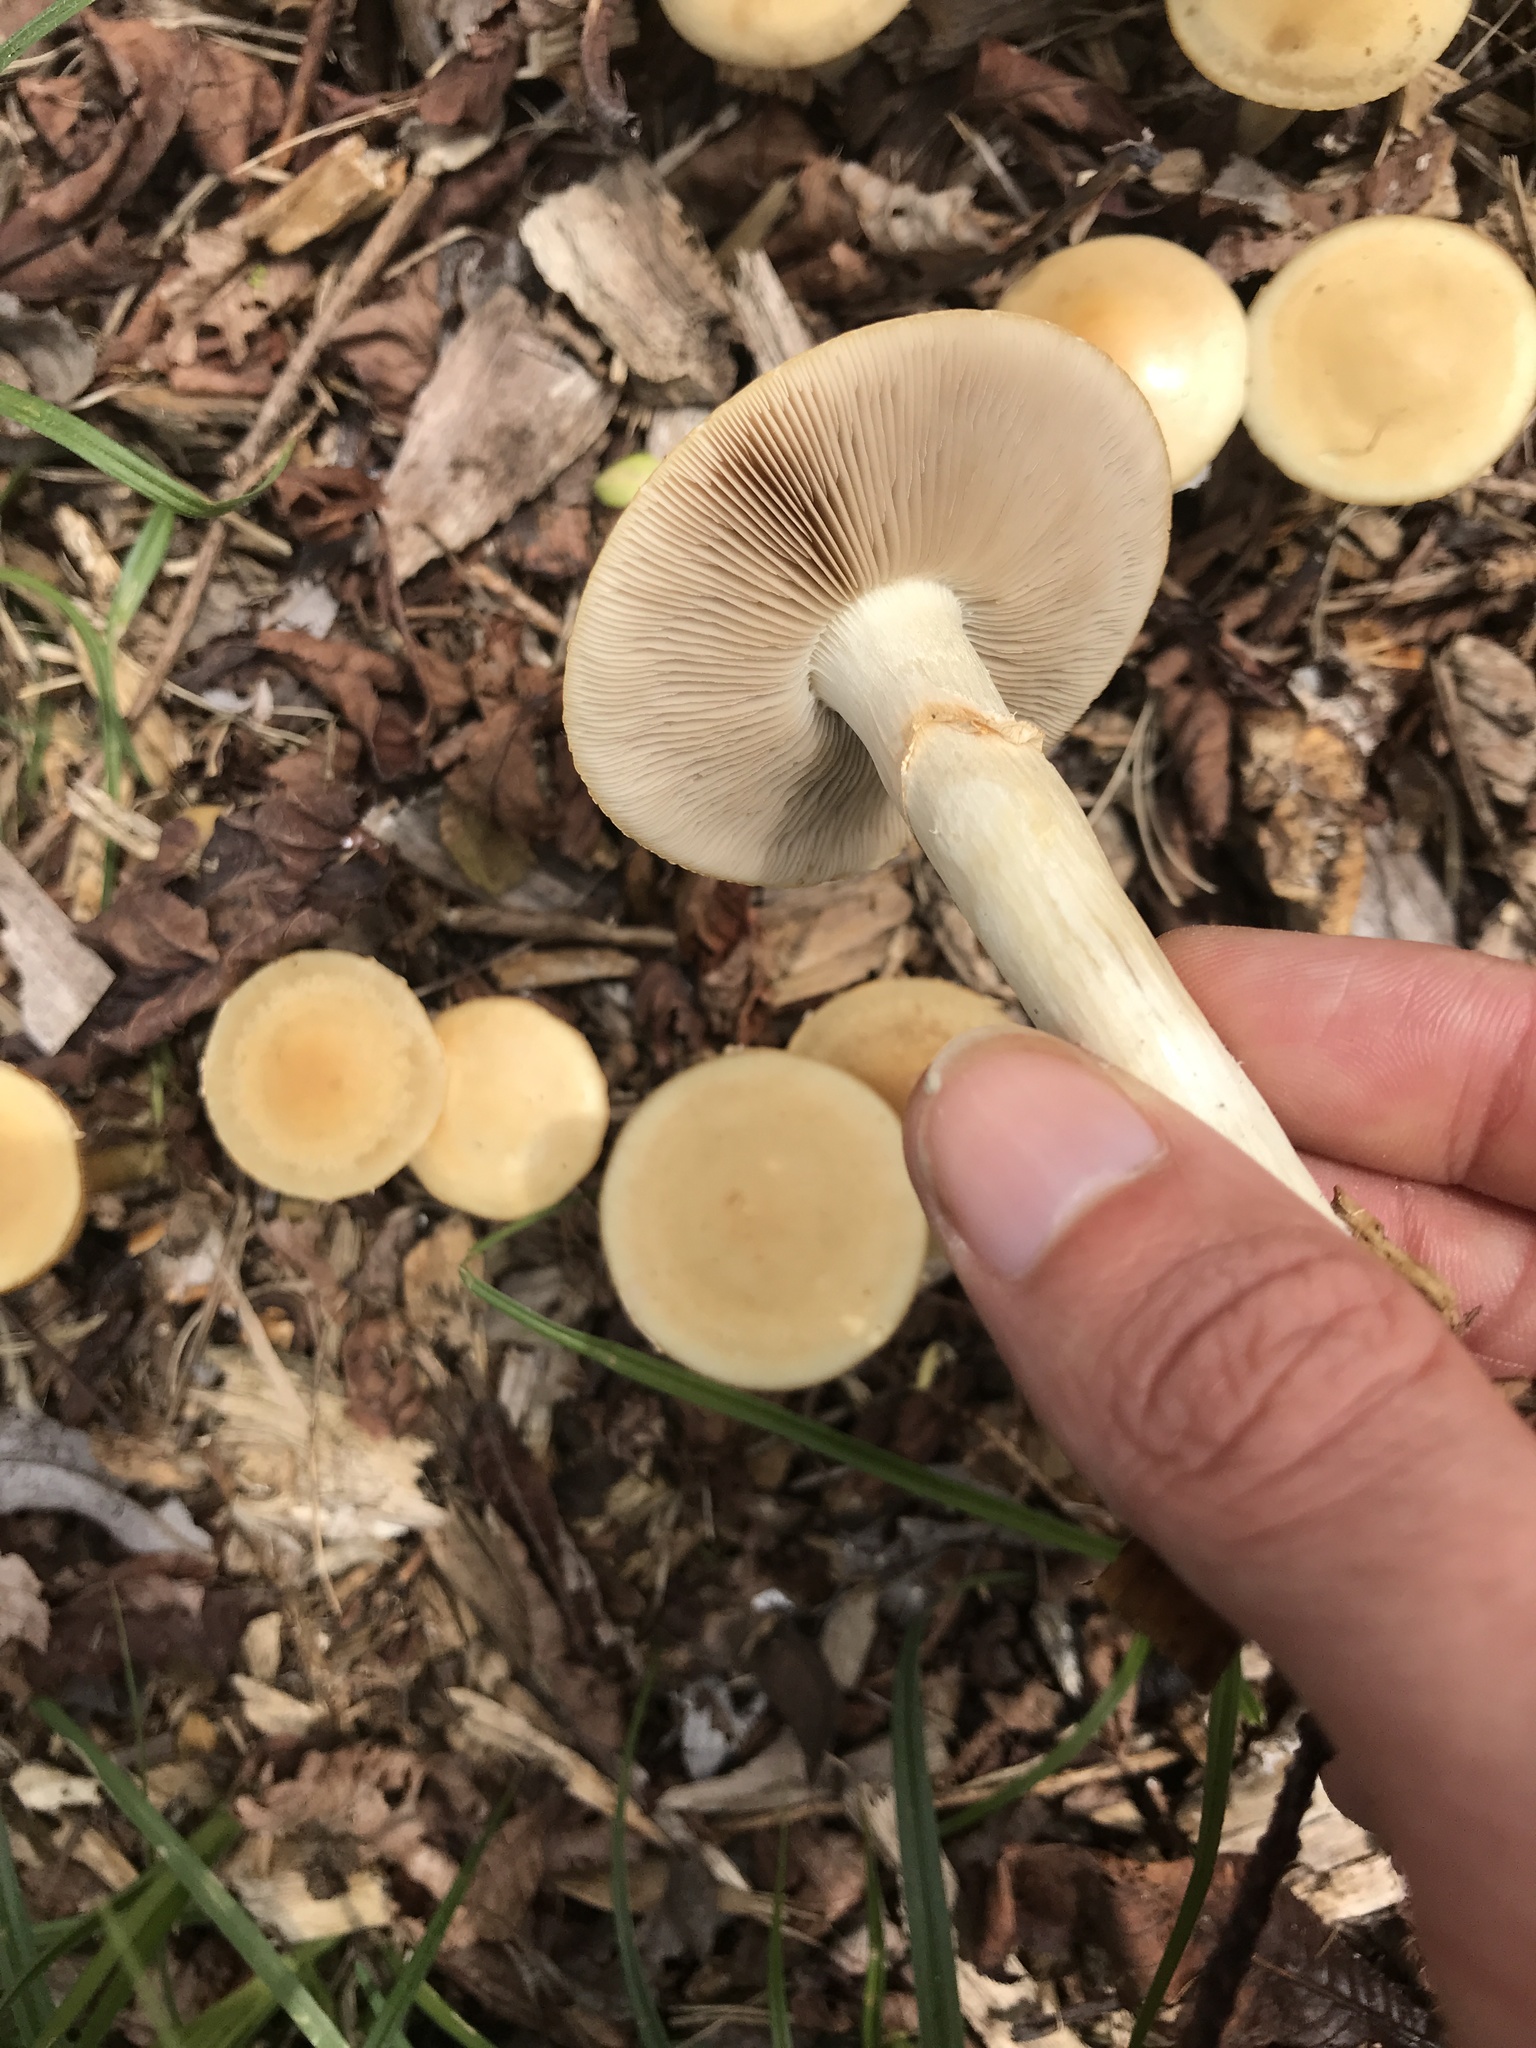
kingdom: Fungi
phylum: Basidiomycota
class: Agaricomycetes
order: Agaricales
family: Strophariaceae
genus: Agrocybe
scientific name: Agrocybe praecox
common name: Spring fieldcap
